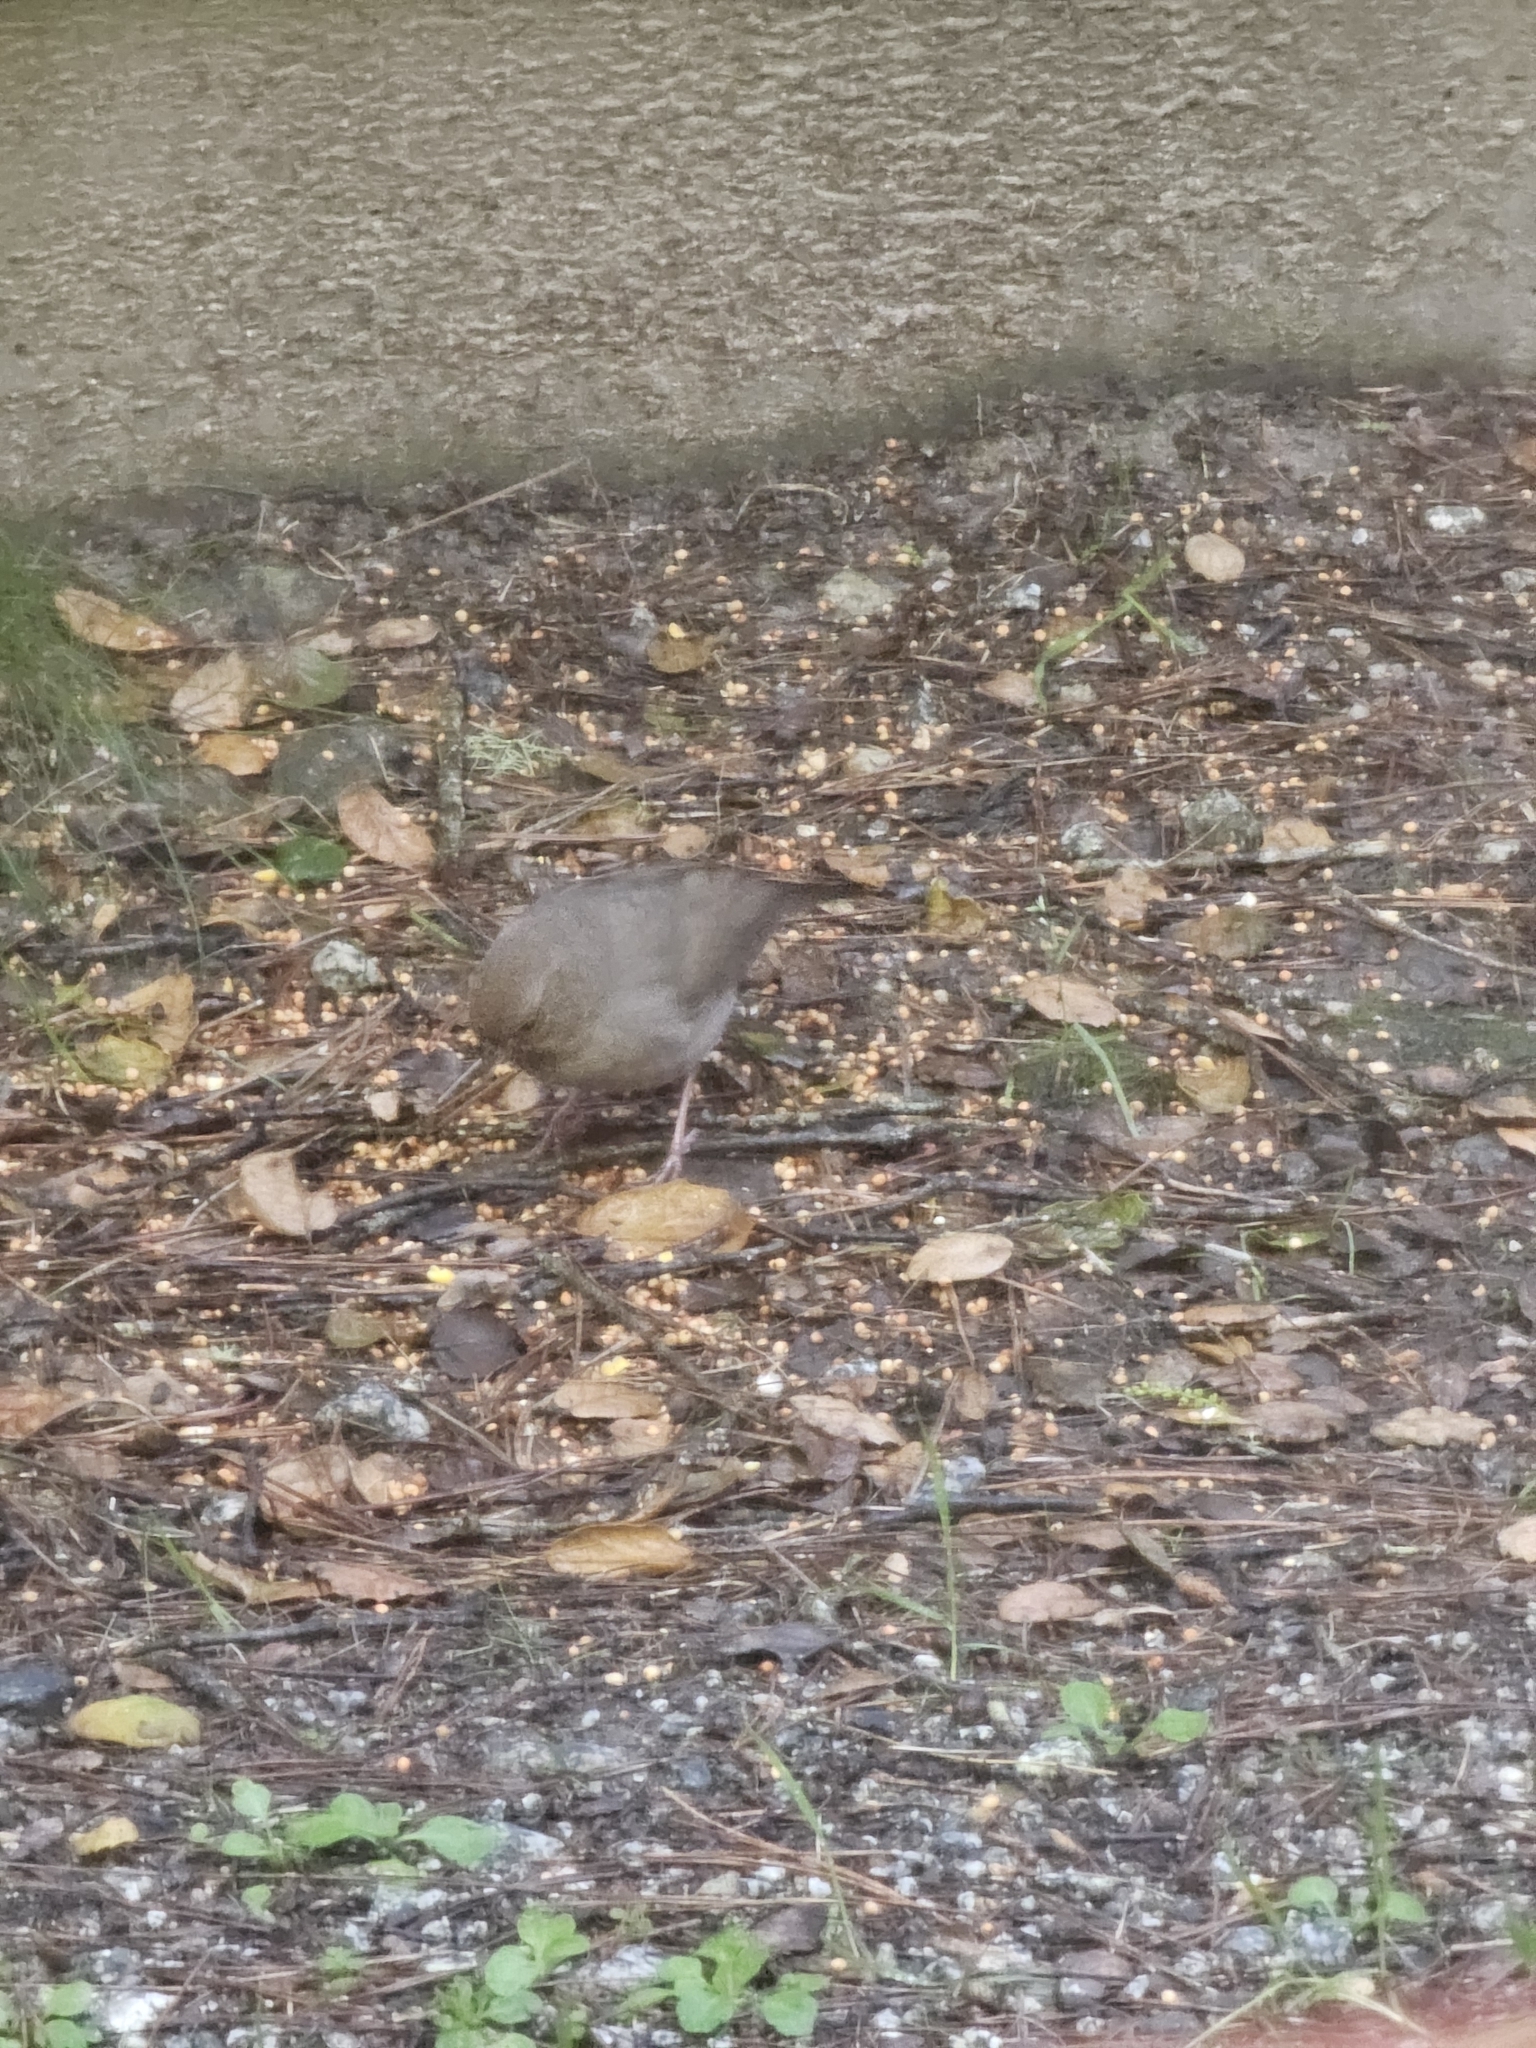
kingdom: Animalia
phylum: Chordata
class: Aves
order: Passeriformes
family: Passerellidae
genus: Melozone
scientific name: Melozone crissalis
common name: California towhee
